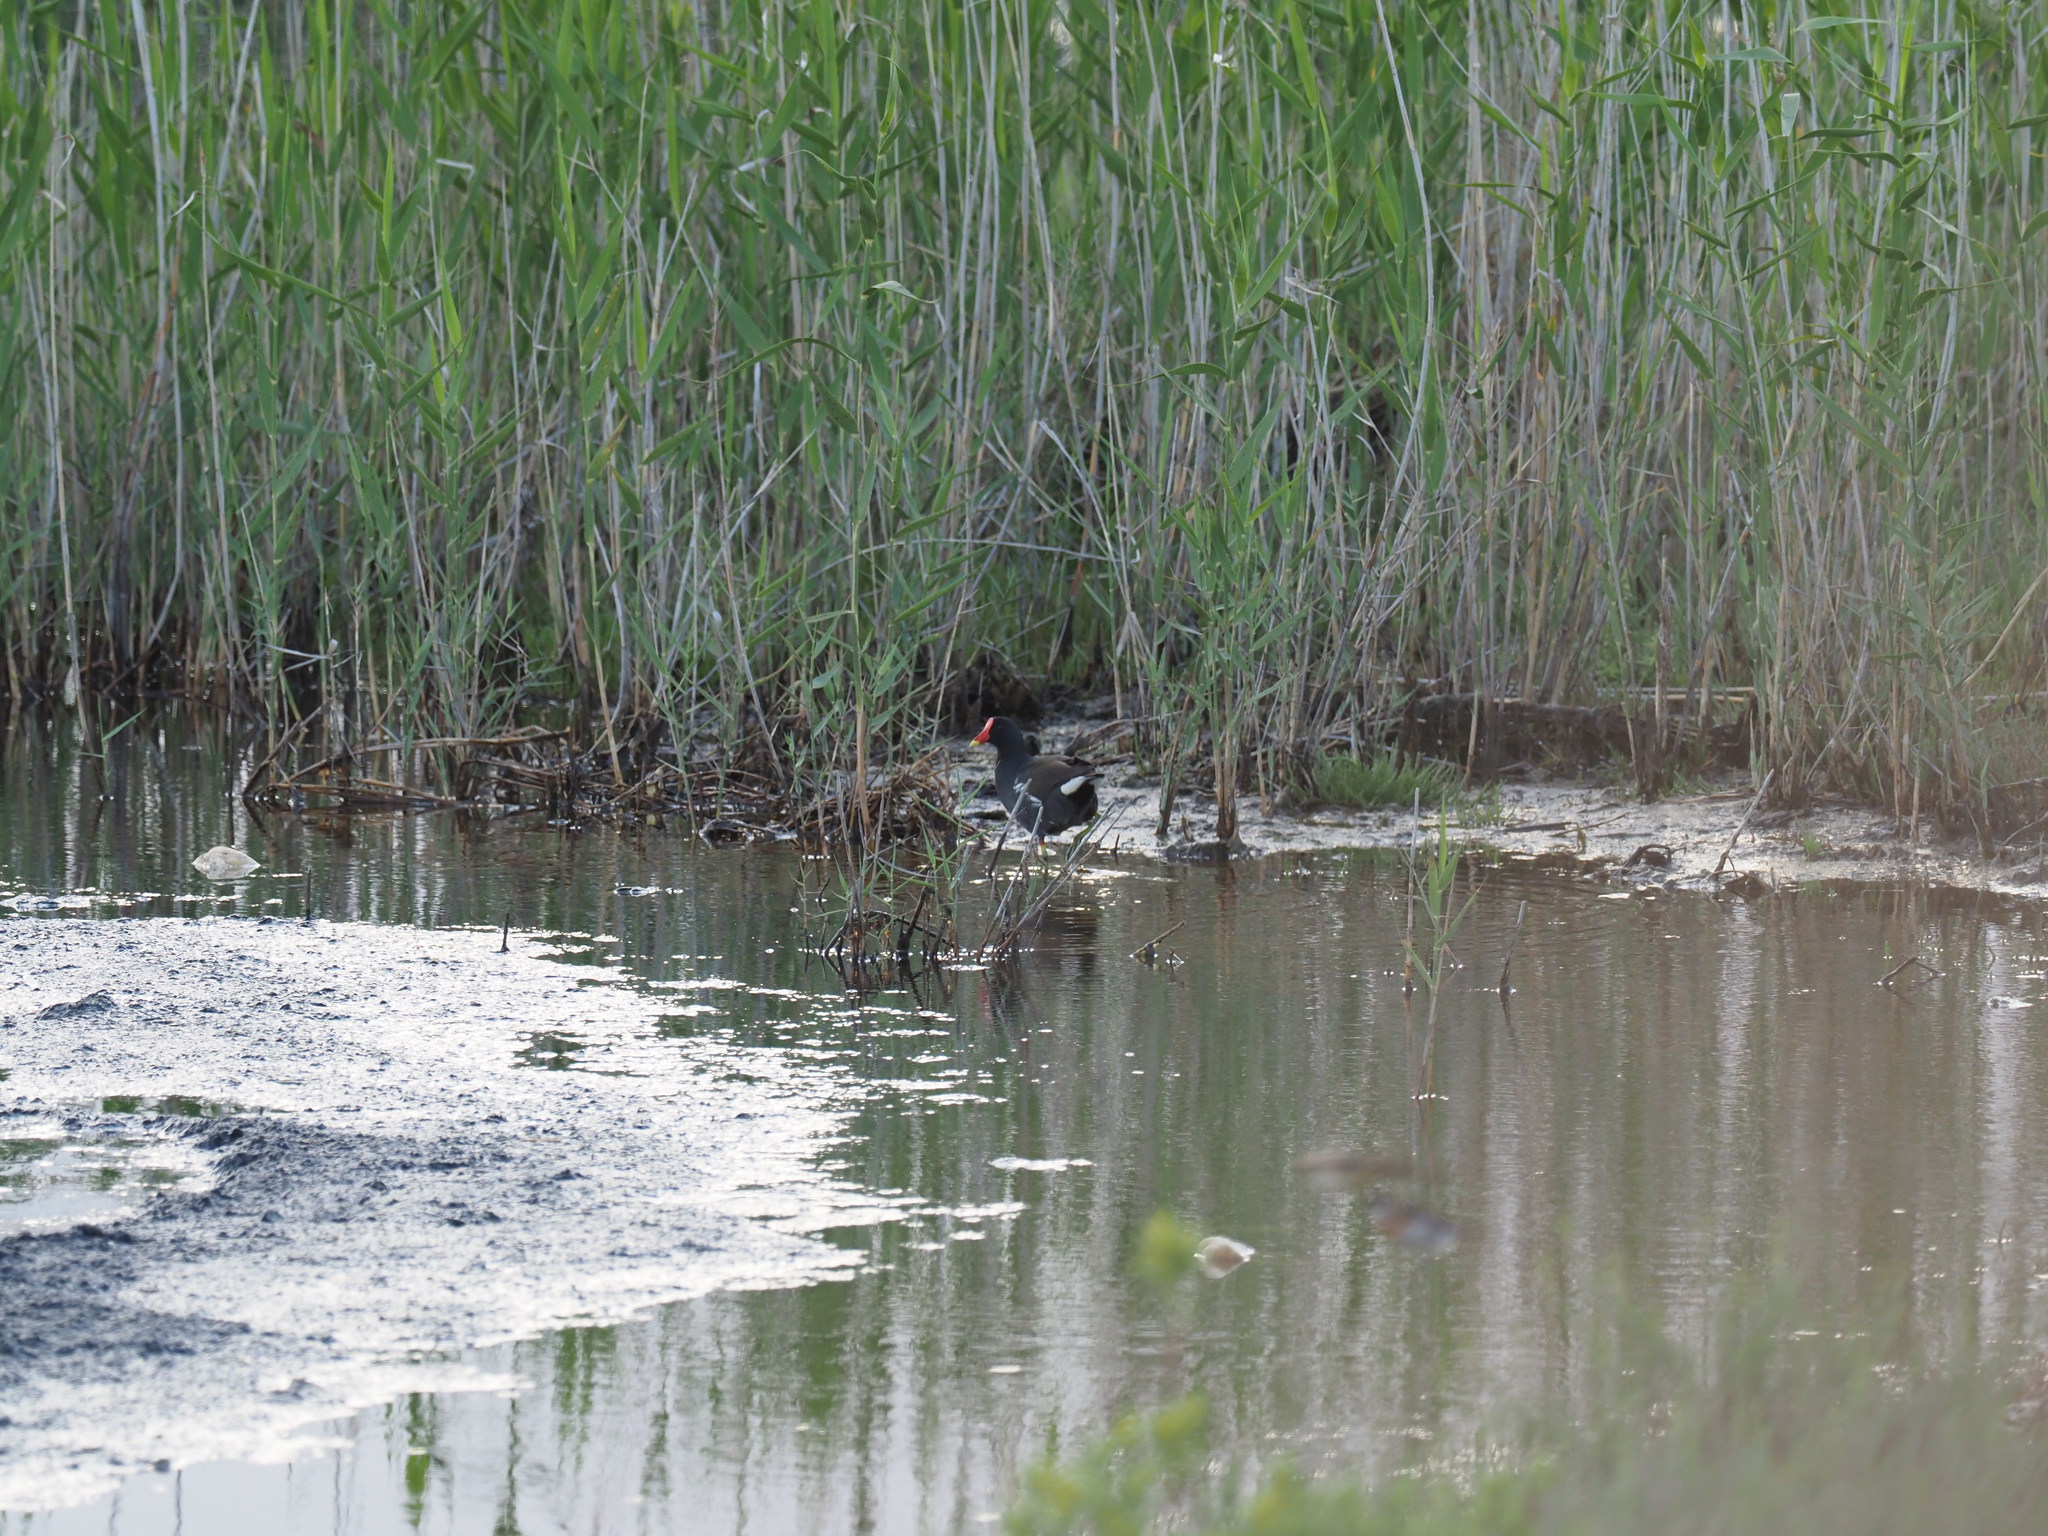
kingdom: Animalia
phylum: Chordata
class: Aves
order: Gruiformes
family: Rallidae
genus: Gallinula
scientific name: Gallinula chloropus
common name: Common moorhen
